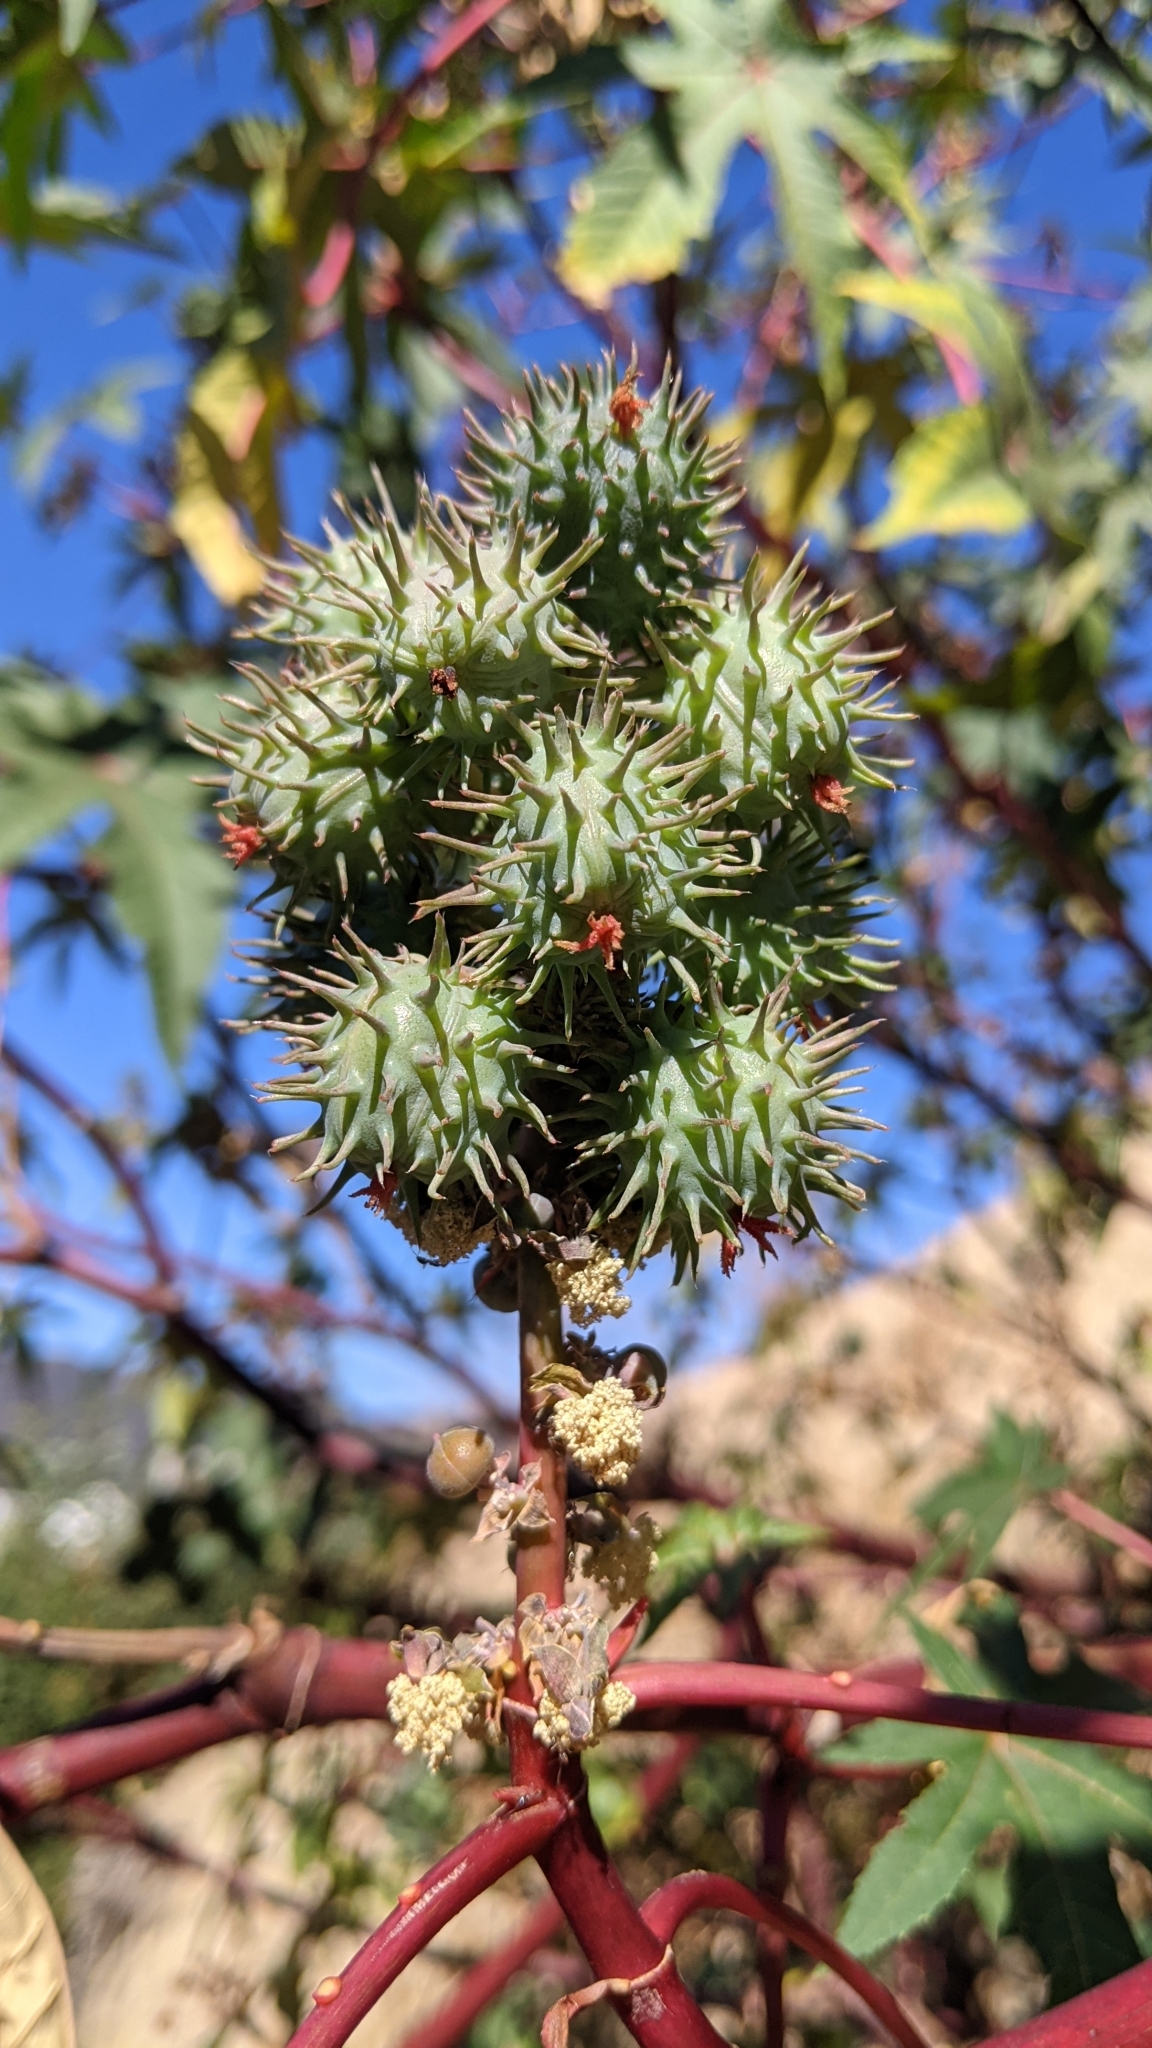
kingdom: Plantae
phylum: Tracheophyta
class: Magnoliopsida
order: Malpighiales
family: Euphorbiaceae
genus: Ricinus
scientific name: Ricinus communis
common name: Castor-oil-plant
